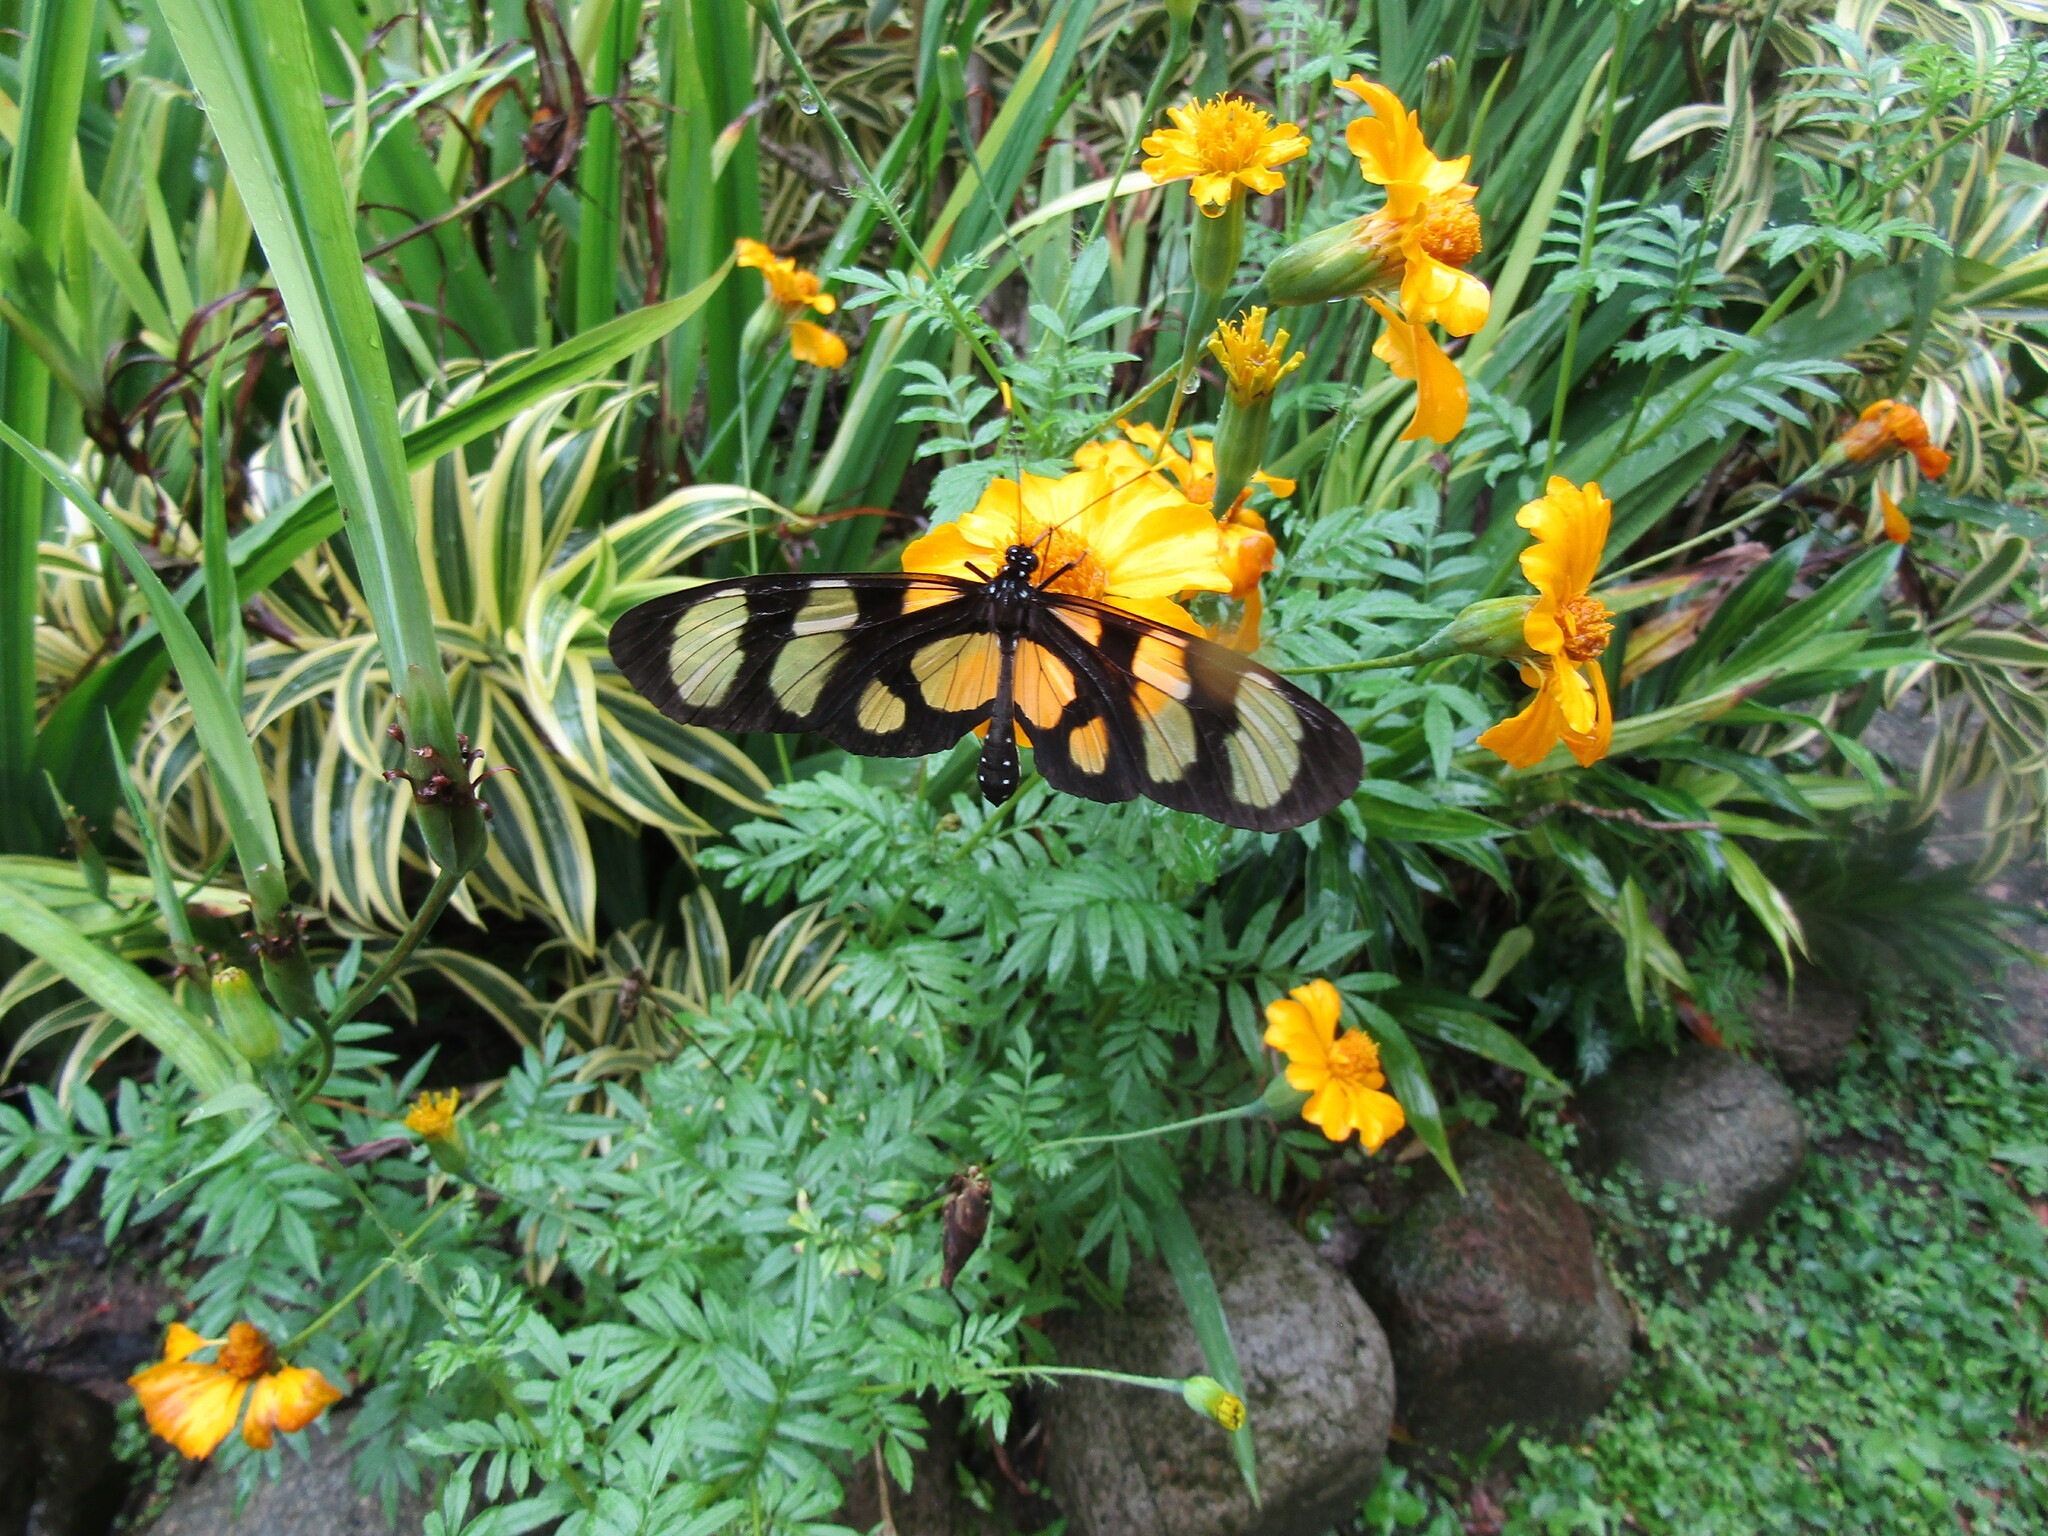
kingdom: Animalia
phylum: Arthropoda
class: Insecta
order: Lepidoptera
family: Nymphalidae
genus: Methona
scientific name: Methona confusa
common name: Confusa tigerwing
